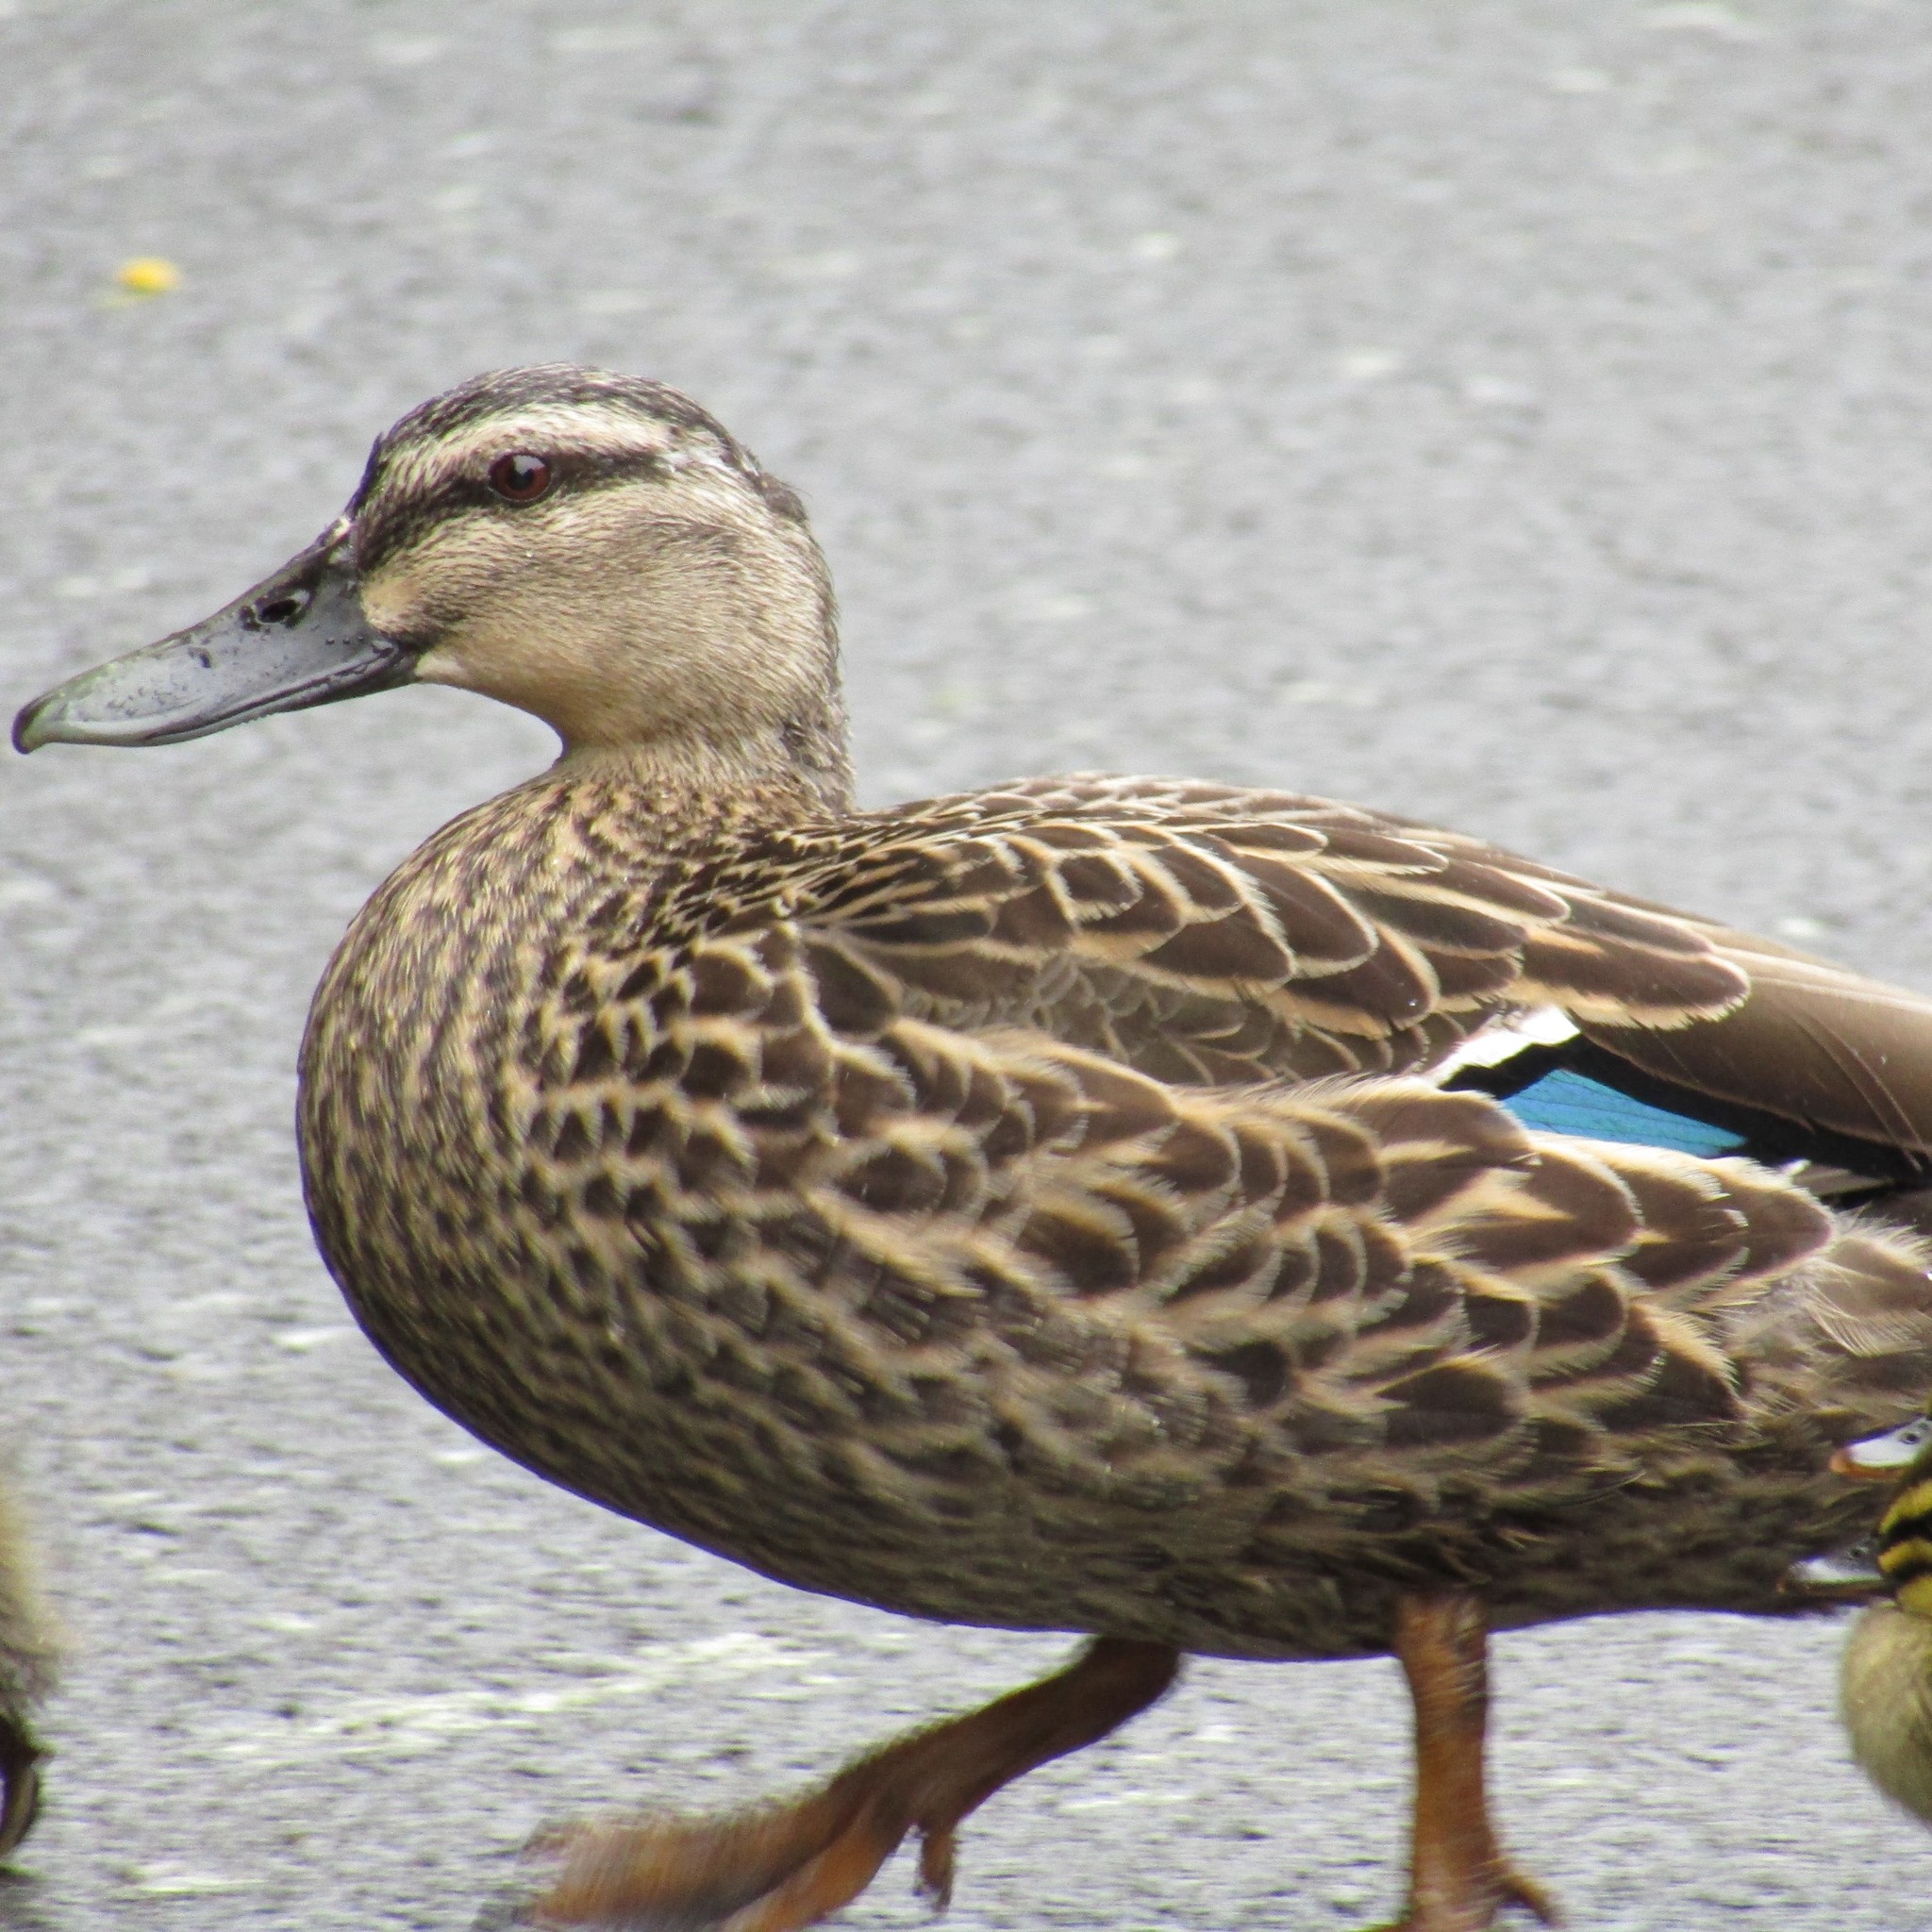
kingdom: Animalia
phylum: Chordata
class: Aves
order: Anseriformes
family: Anatidae
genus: Anas
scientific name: Anas
